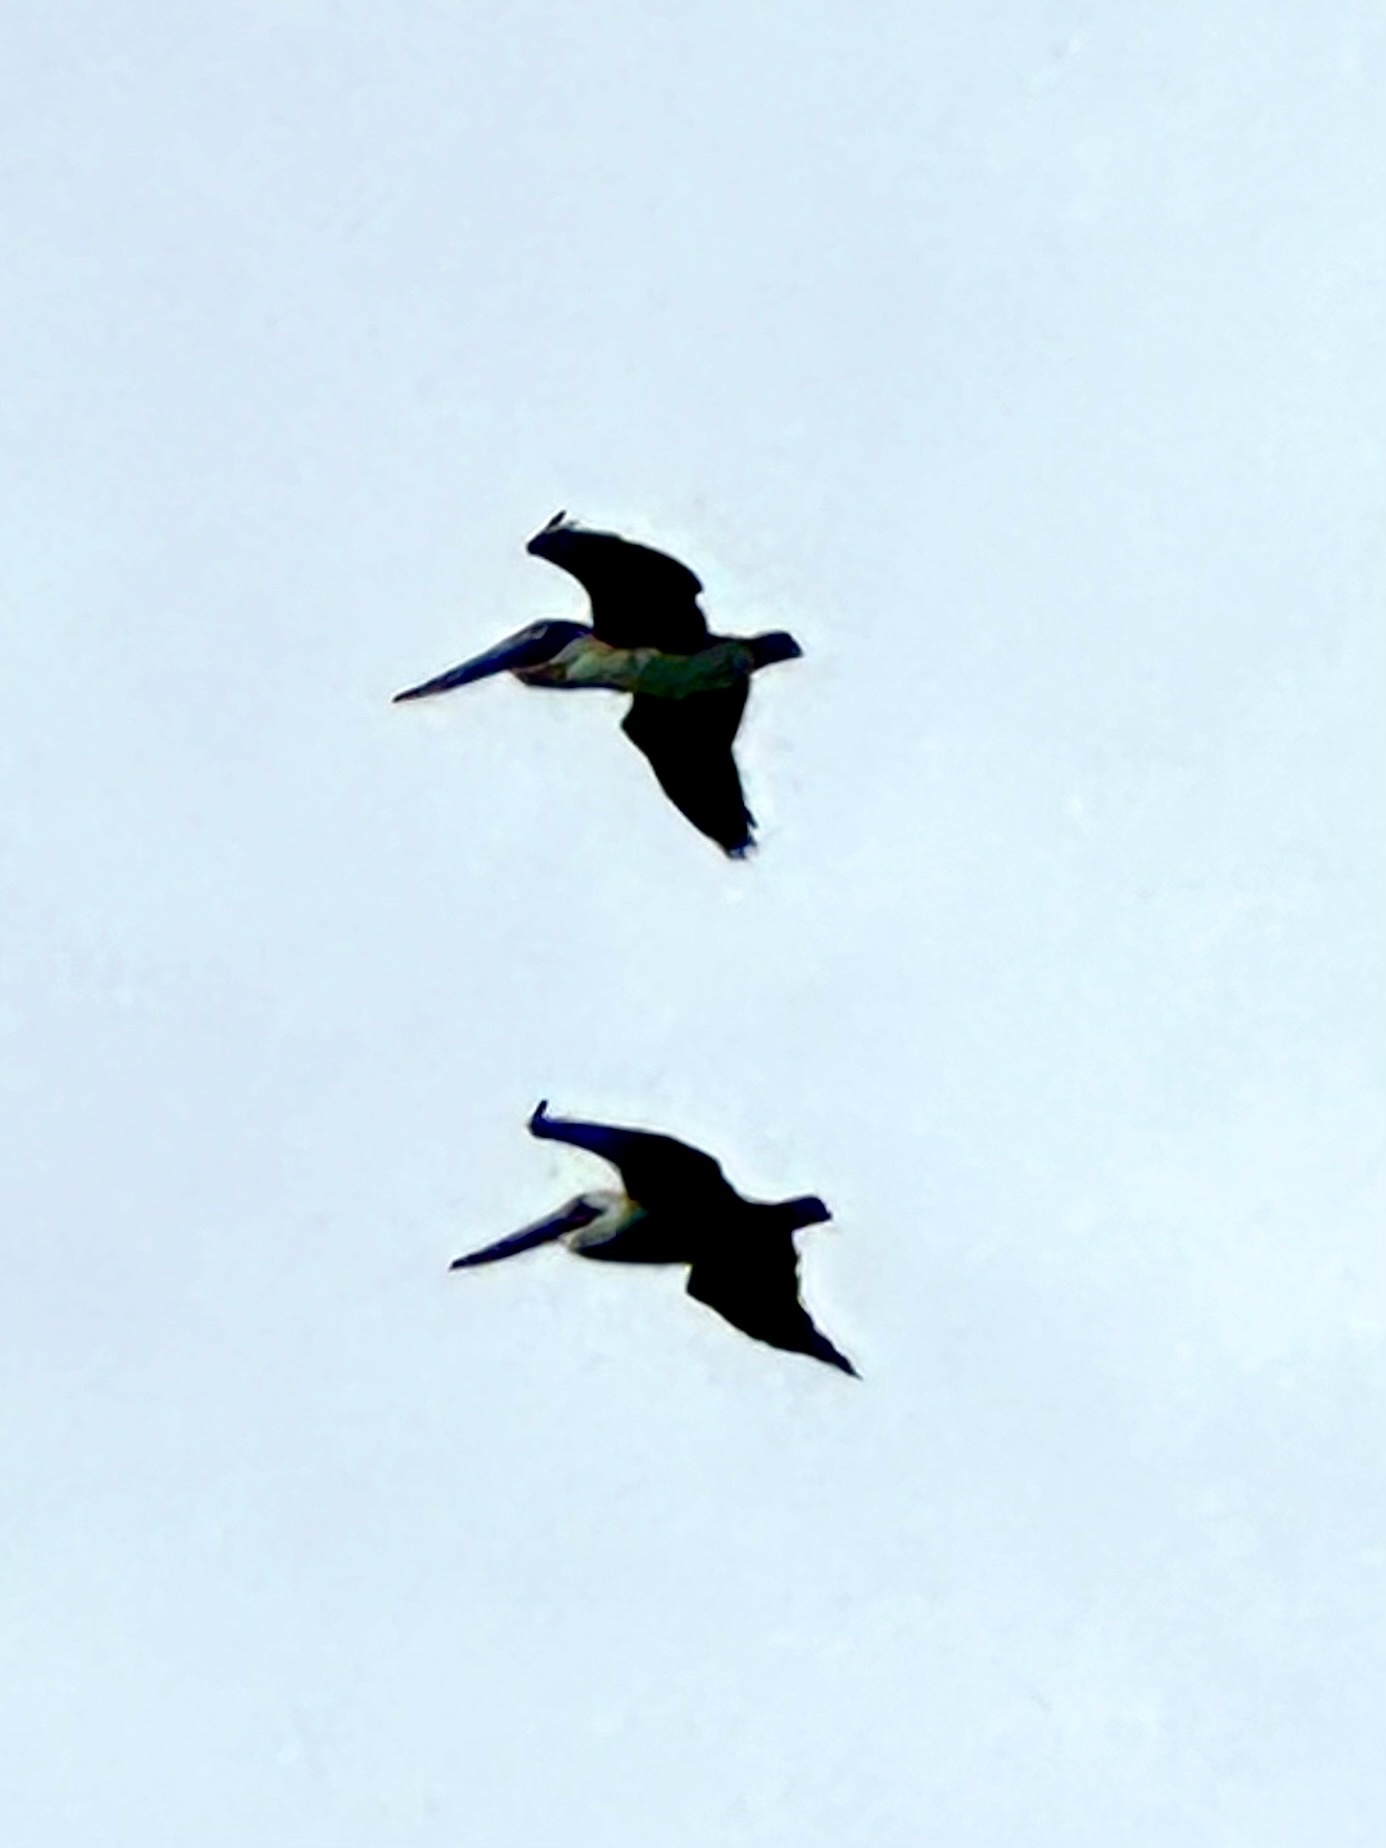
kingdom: Animalia
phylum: Chordata
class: Aves
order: Pelecaniformes
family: Pelecanidae
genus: Pelecanus
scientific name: Pelecanus occidentalis
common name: Brown pelican
